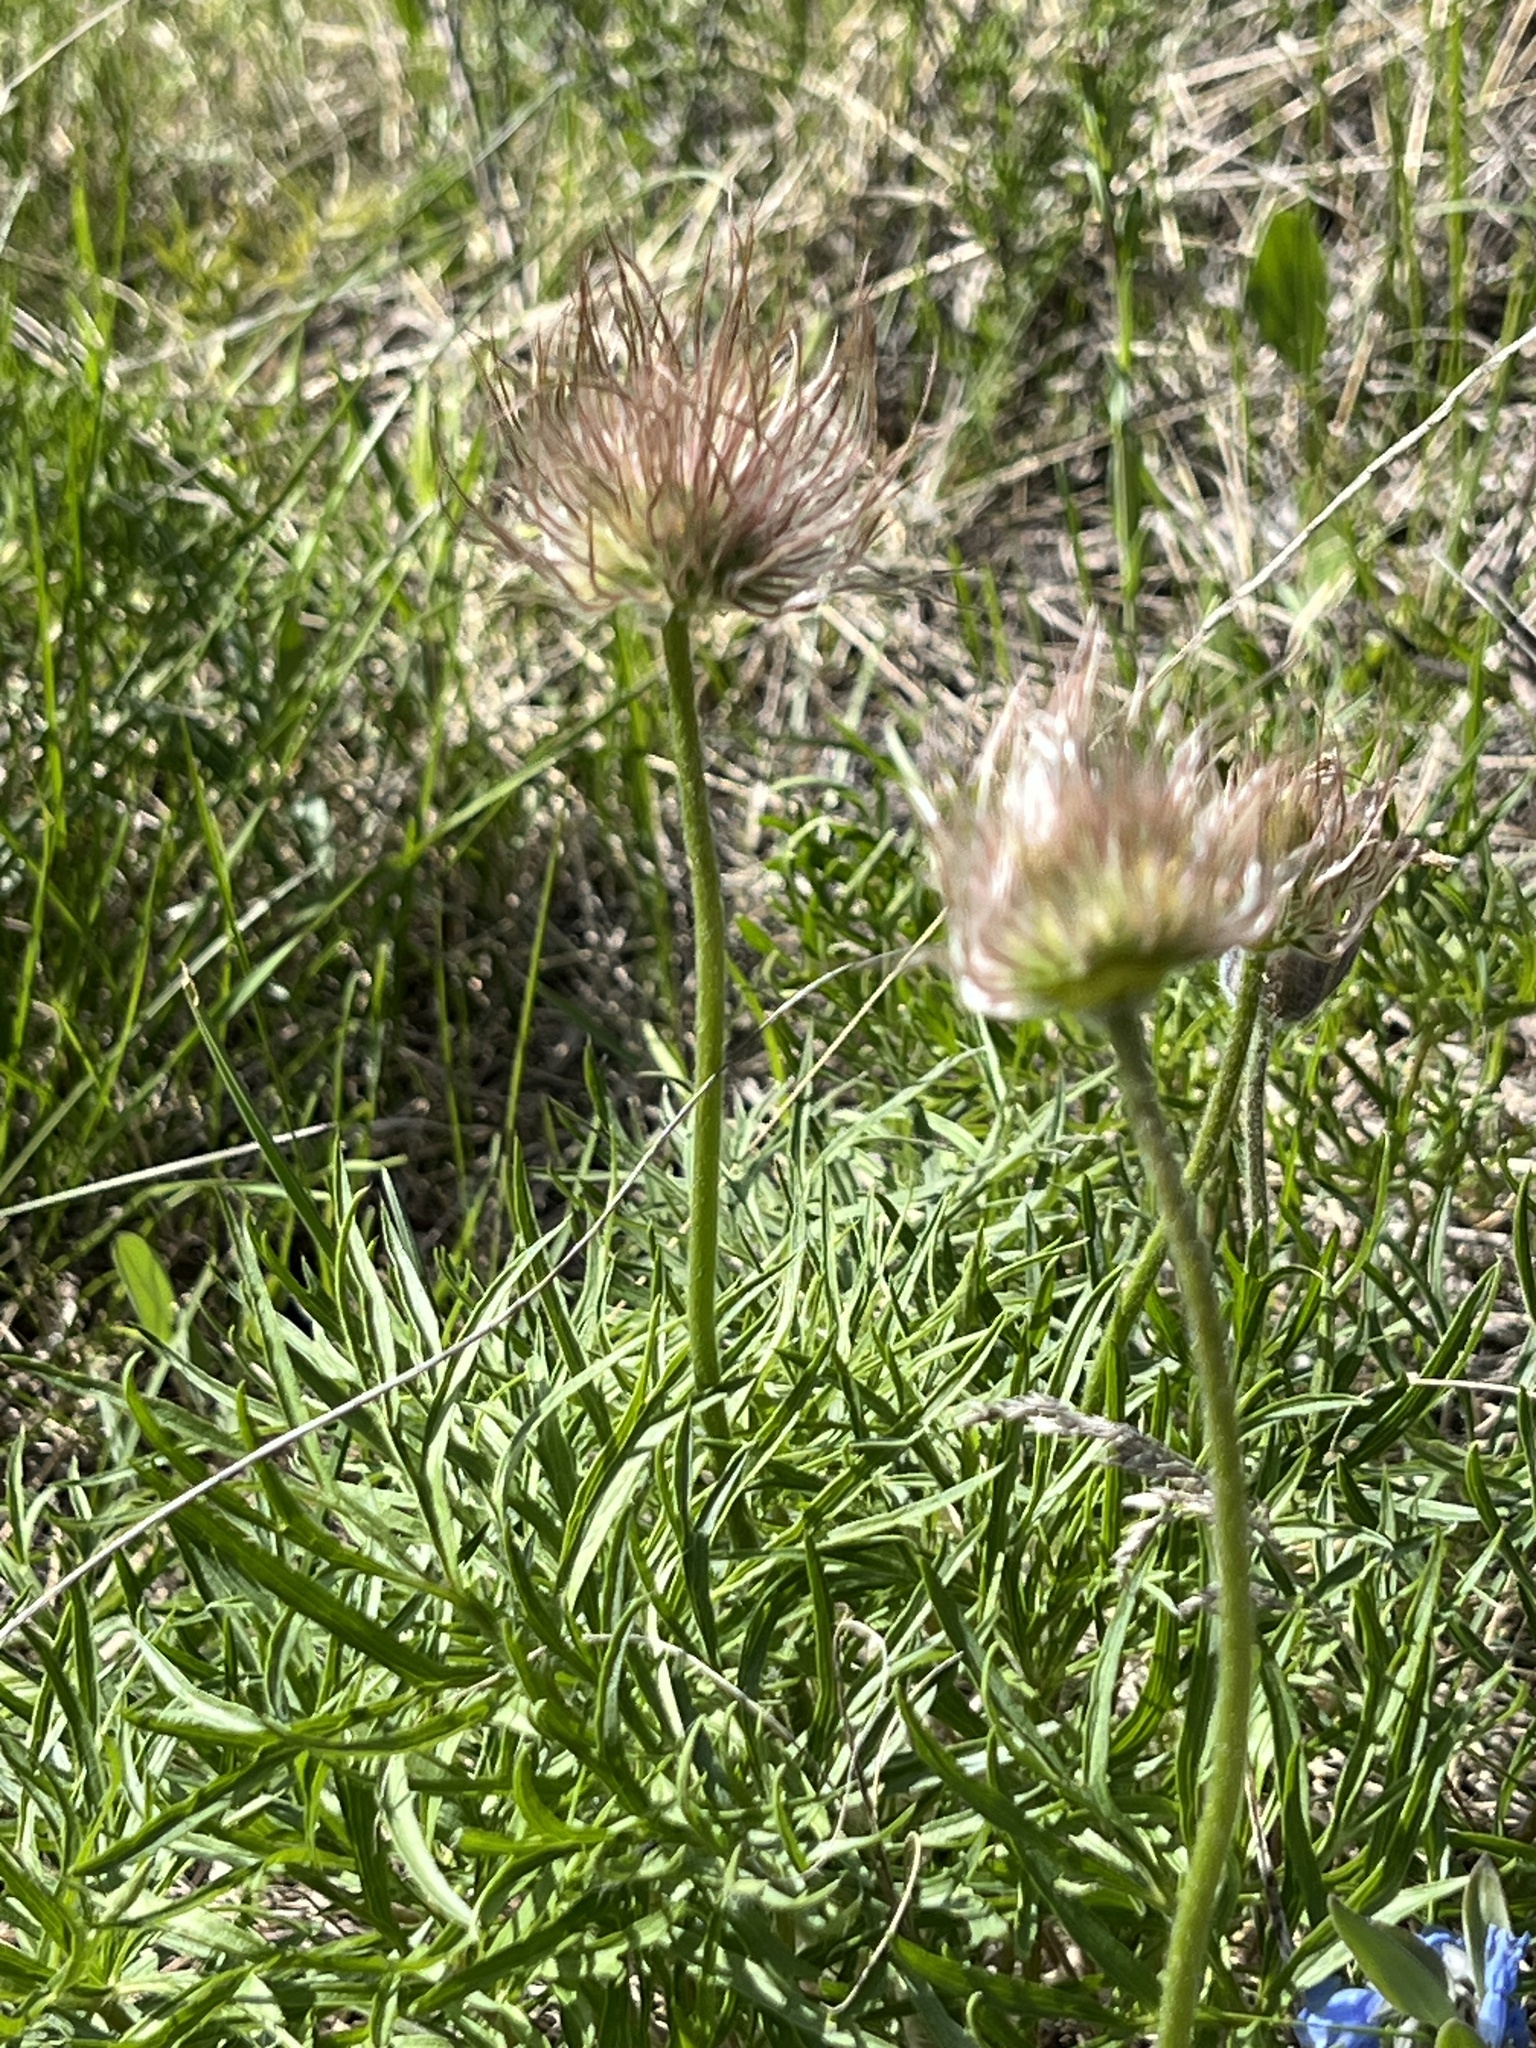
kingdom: Plantae
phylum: Tracheophyta
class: Magnoliopsida
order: Ranunculales
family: Ranunculaceae
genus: Pulsatilla
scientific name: Pulsatilla nuttalliana
